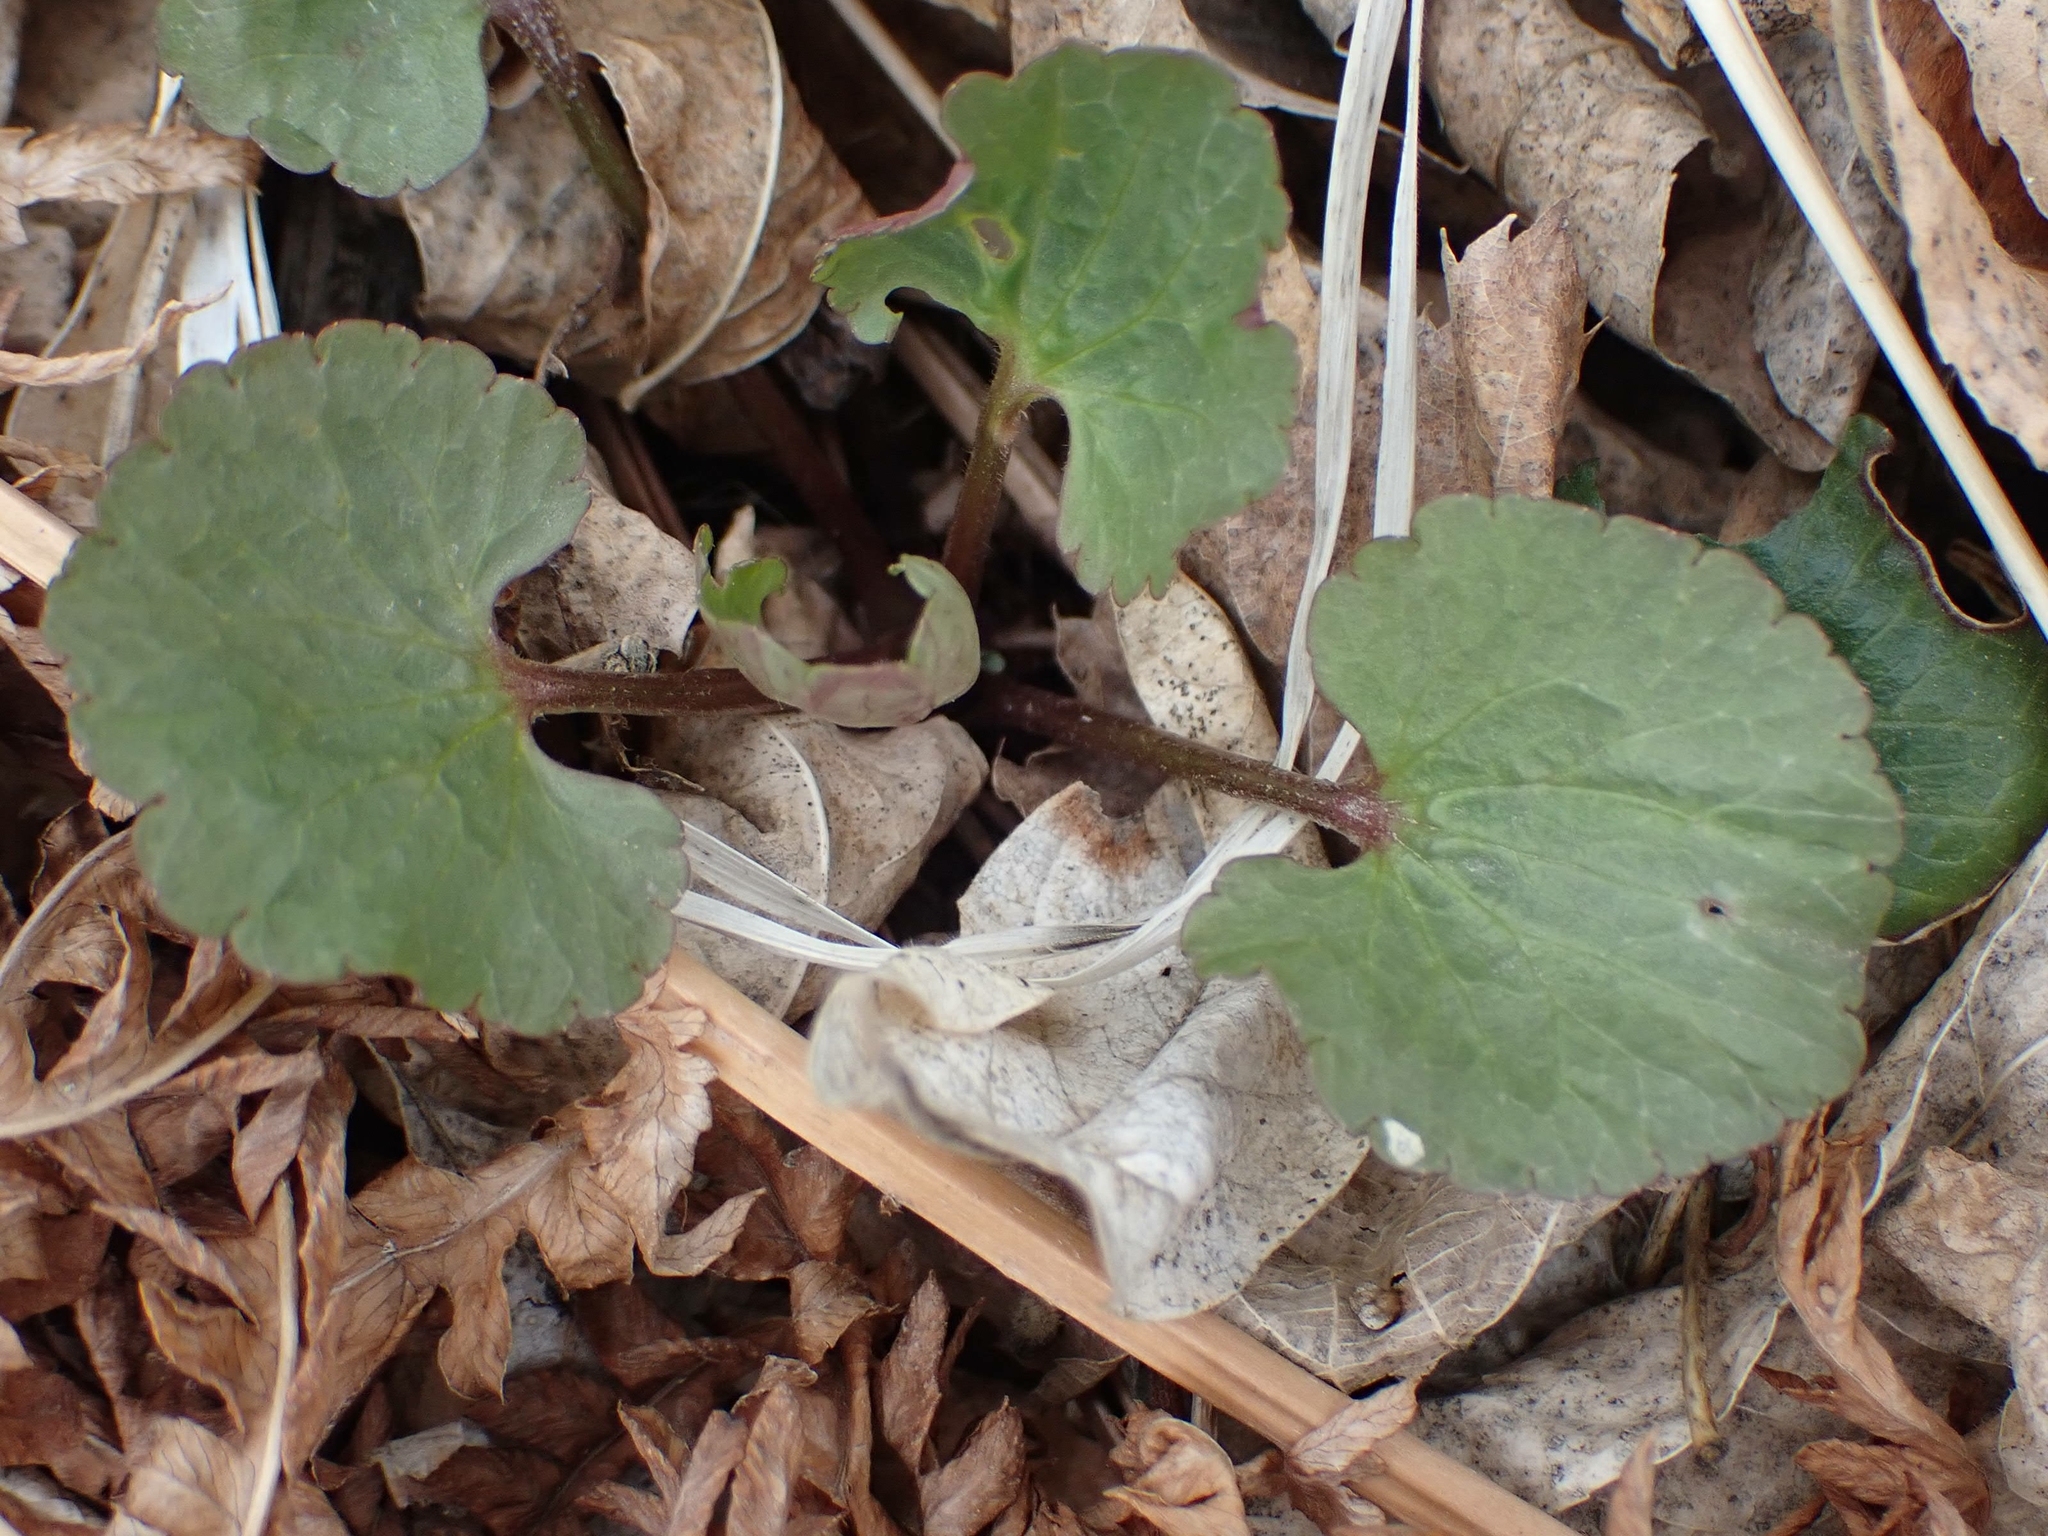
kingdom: Plantae
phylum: Tracheophyta
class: Magnoliopsida
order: Ranunculales
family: Ranunculaceae
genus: Ranunculus
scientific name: Ranunculus abortivus
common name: Early wood buttercup
